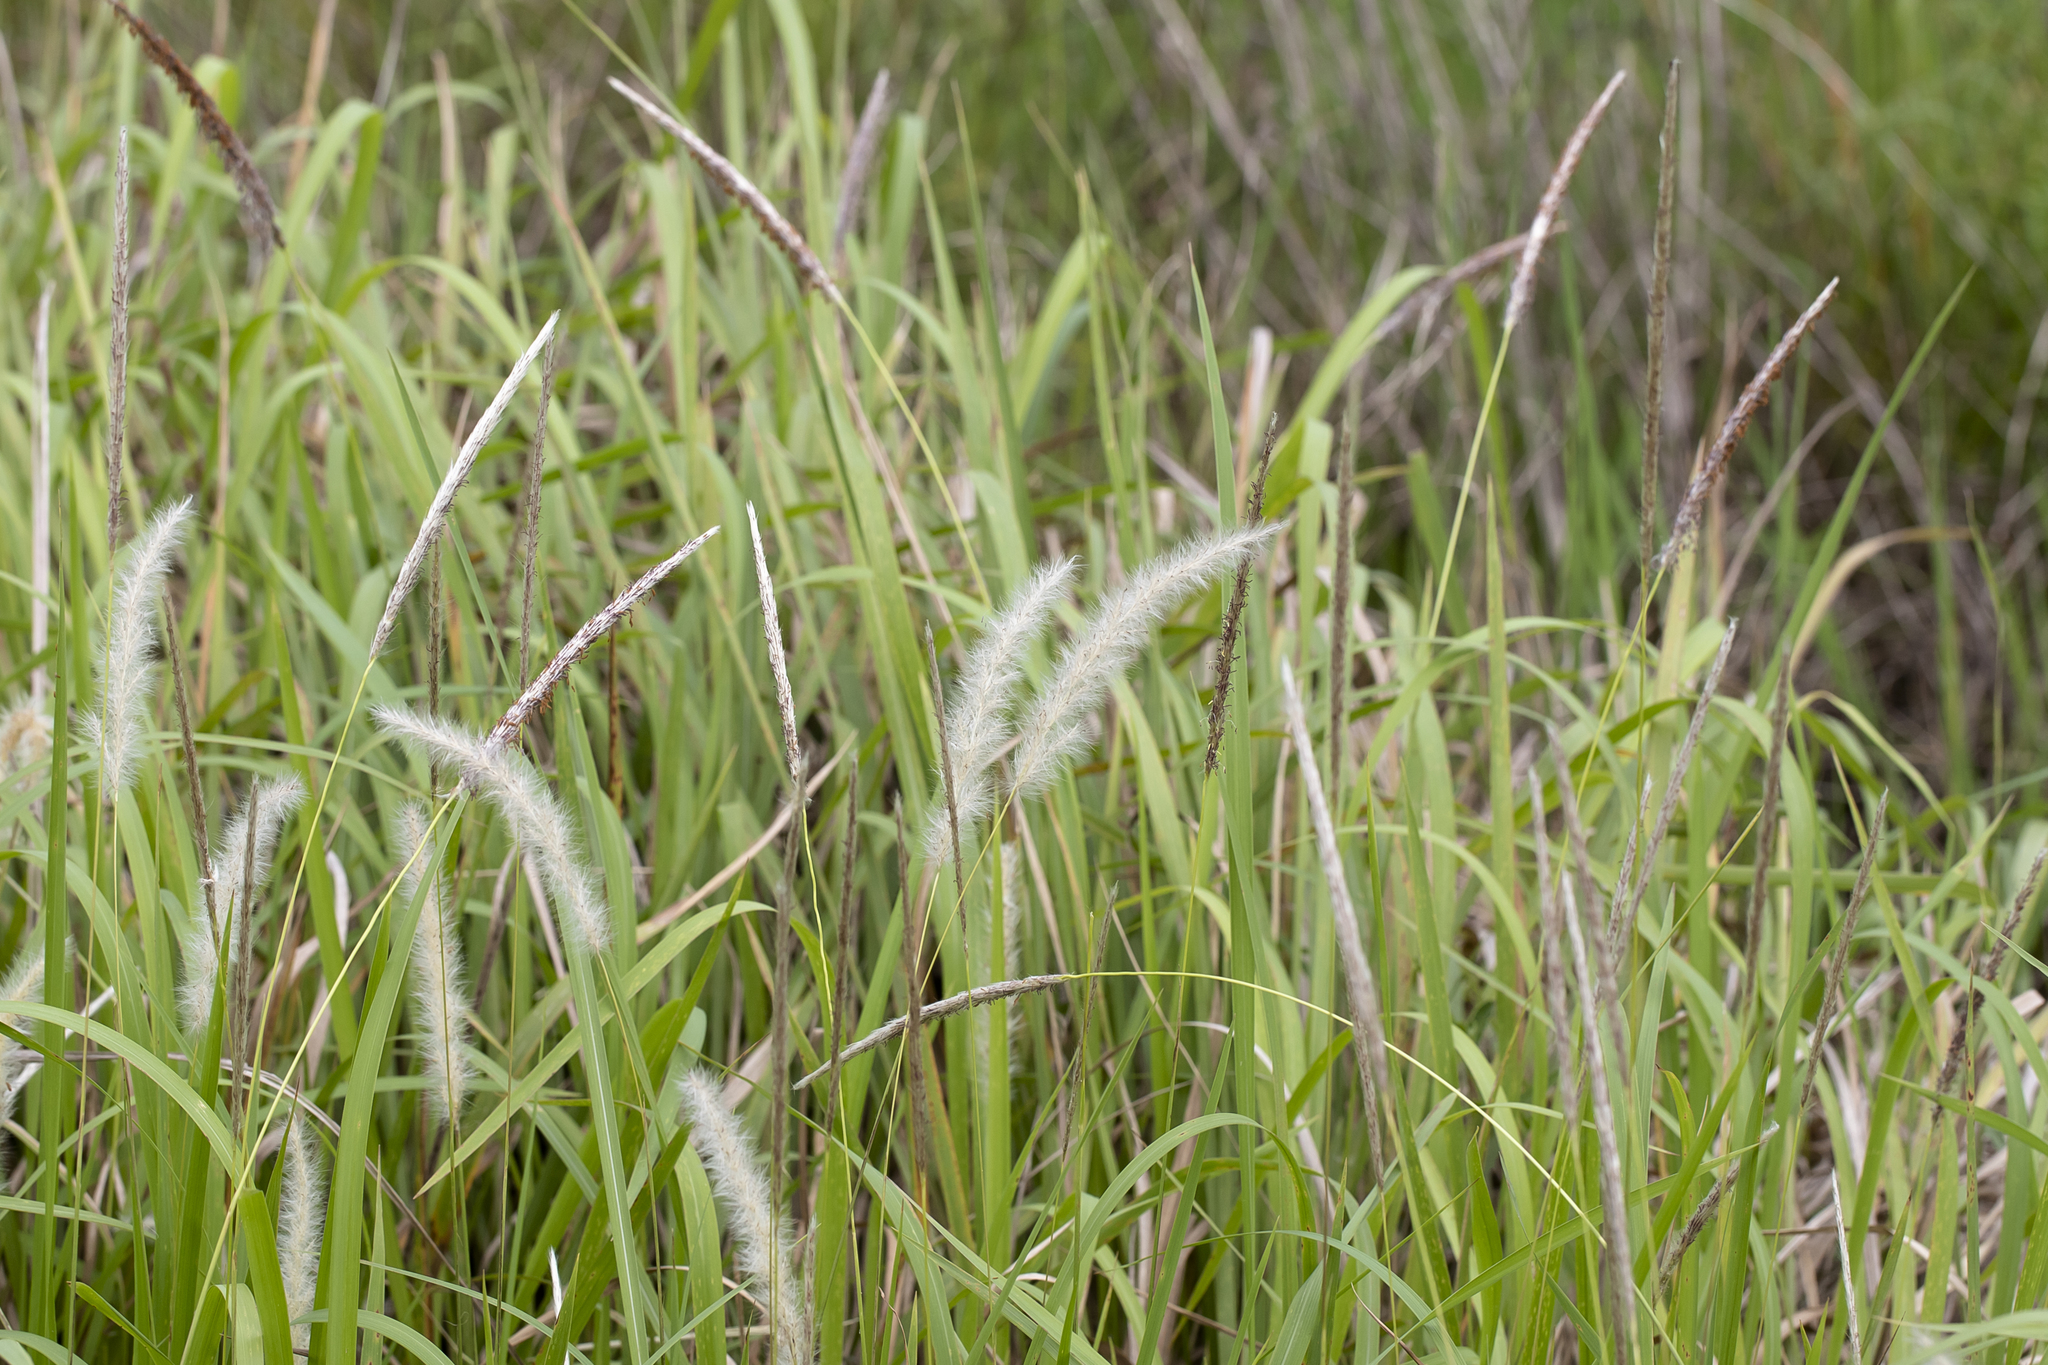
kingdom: Plantae
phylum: Tracheophyta
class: Liliopsida
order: Poales
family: Poaceae
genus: Imperata
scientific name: Imperata cylindrica
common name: Cogongrass
